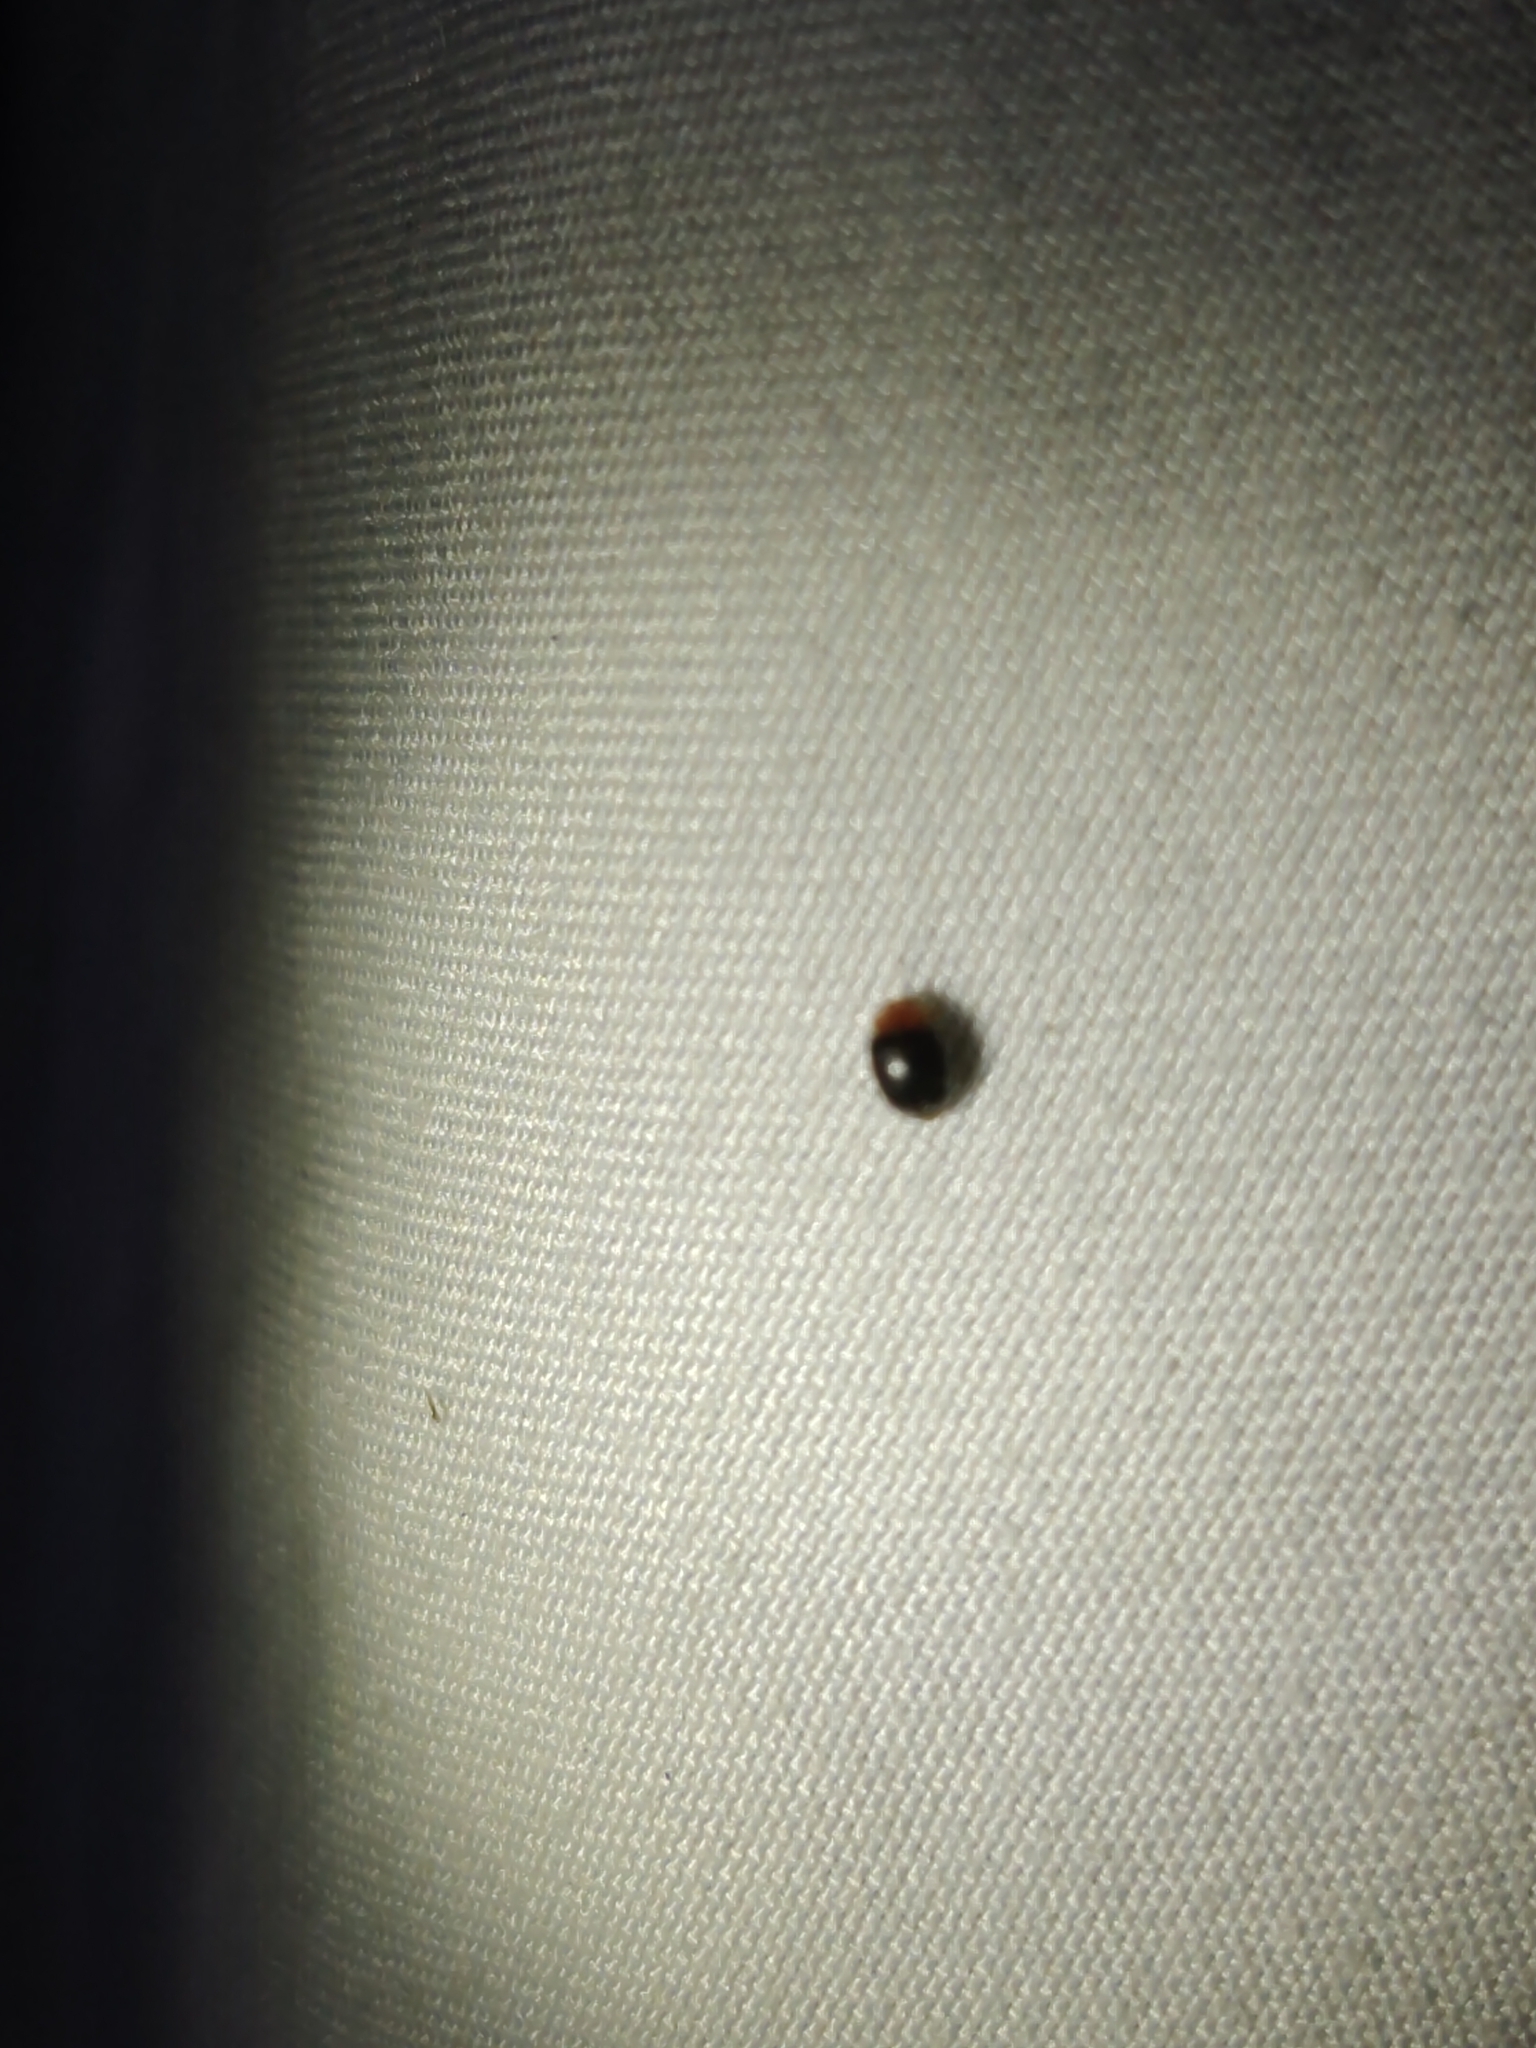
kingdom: Animalia
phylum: Arthropoda
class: Insecta
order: Coleoptera
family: Coccinellidae
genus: Cryptolaemus
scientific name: Cryptolaemus montrouzieri
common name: Mealybug destroyer
